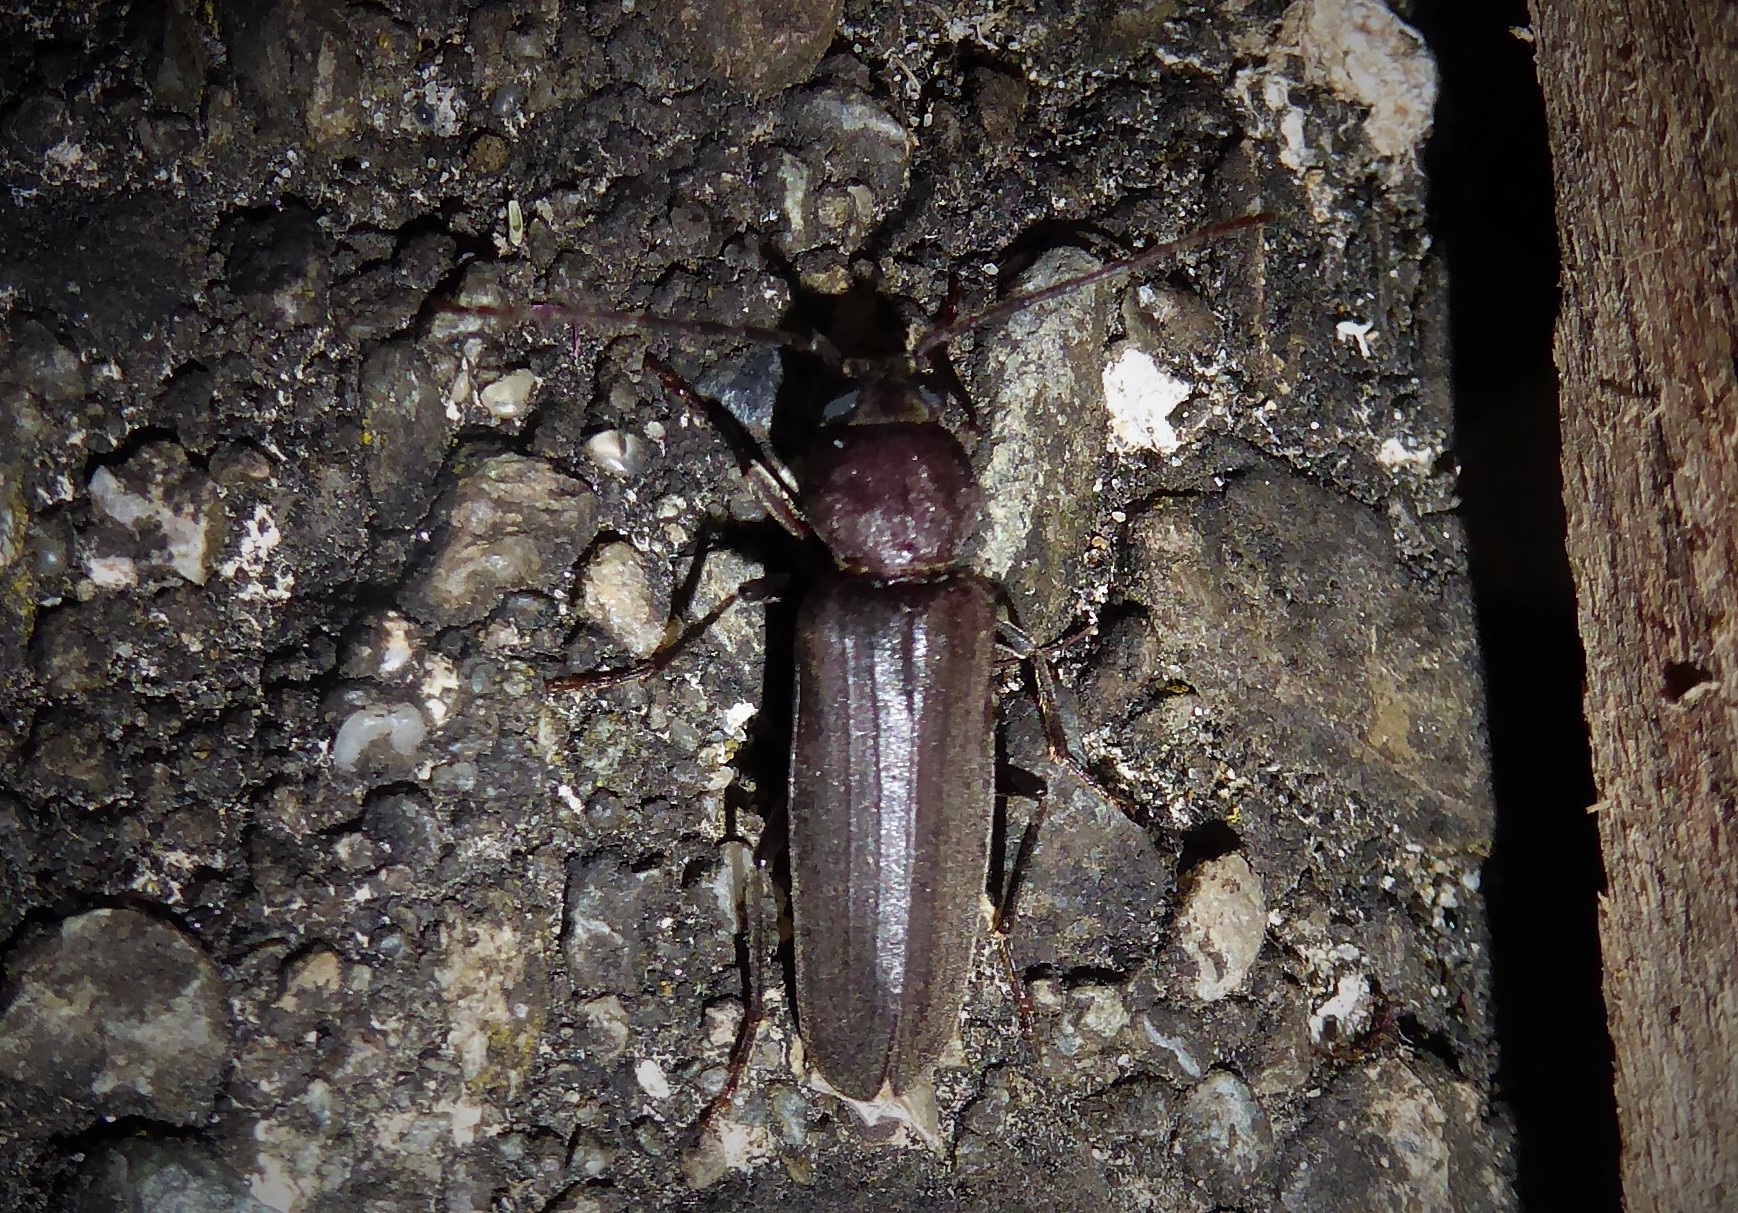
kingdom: Animalia
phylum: Arthropoda
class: Insecta
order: Coleoptera
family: Cerambycidae
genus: Arhopalus
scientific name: Arhopalus ferus
